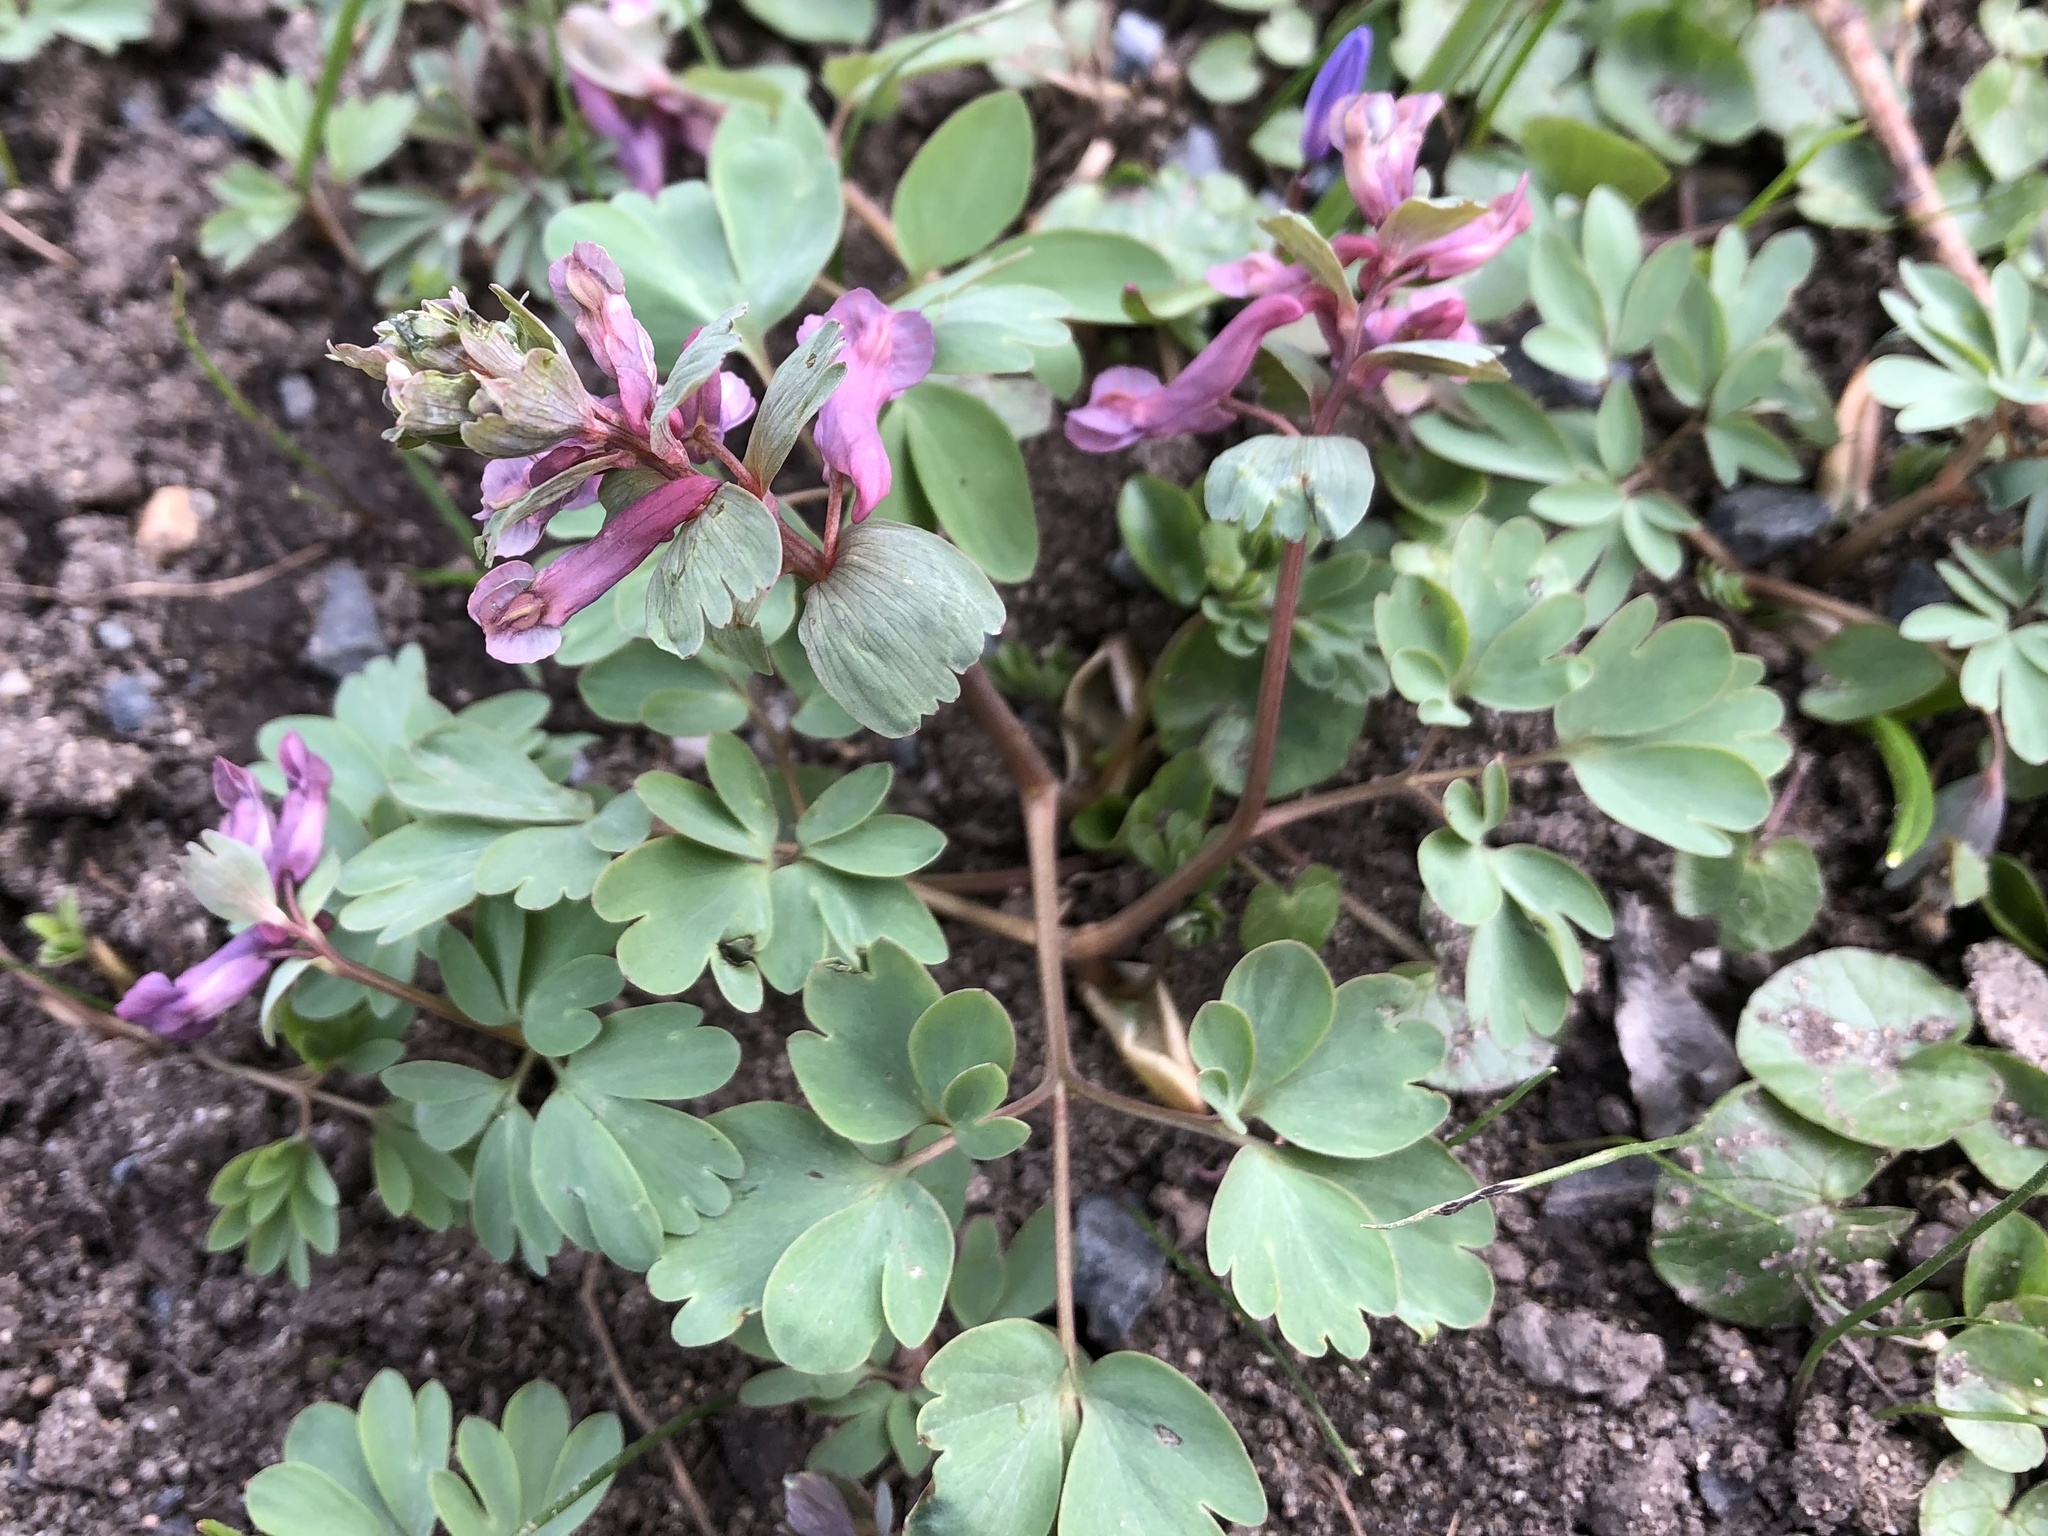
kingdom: Plantae
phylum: Tracheophyta
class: Magnoliopsida
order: Ranunculales
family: Papaveraceae
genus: Corydalis
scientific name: Corydalis solida
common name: Bird-in-a-bush
